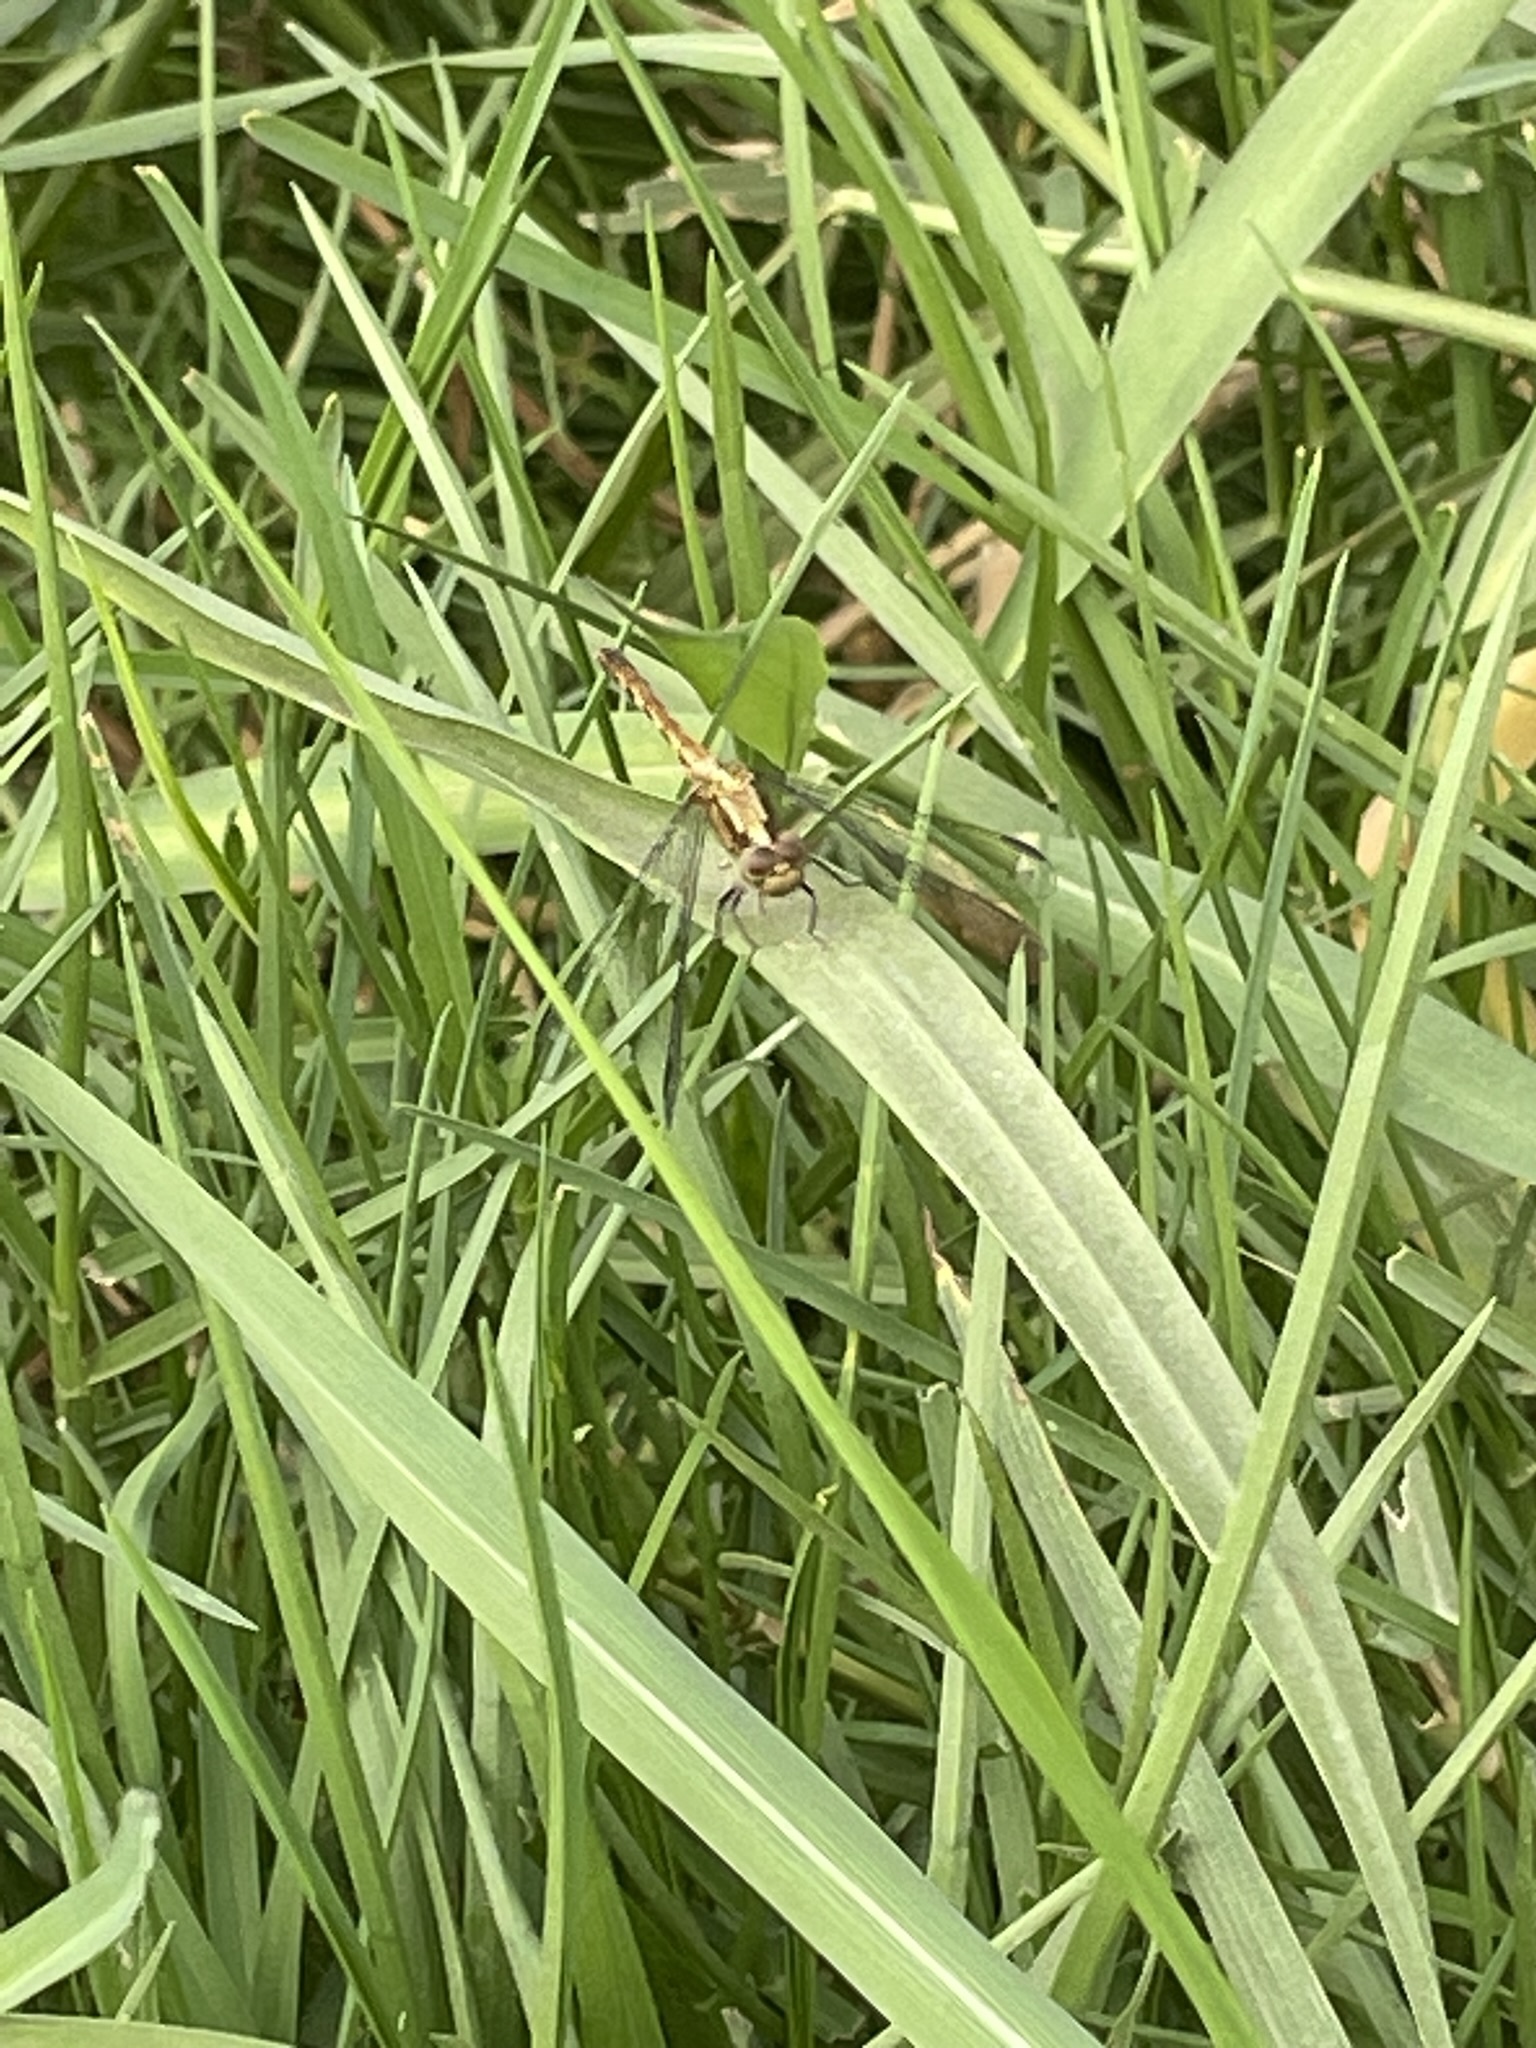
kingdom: Animalia
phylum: Arthropoda
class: Insecta
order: Odonata
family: Libellulidae
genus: Erythrodiplax
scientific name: Erythrodiplax cleopatra
